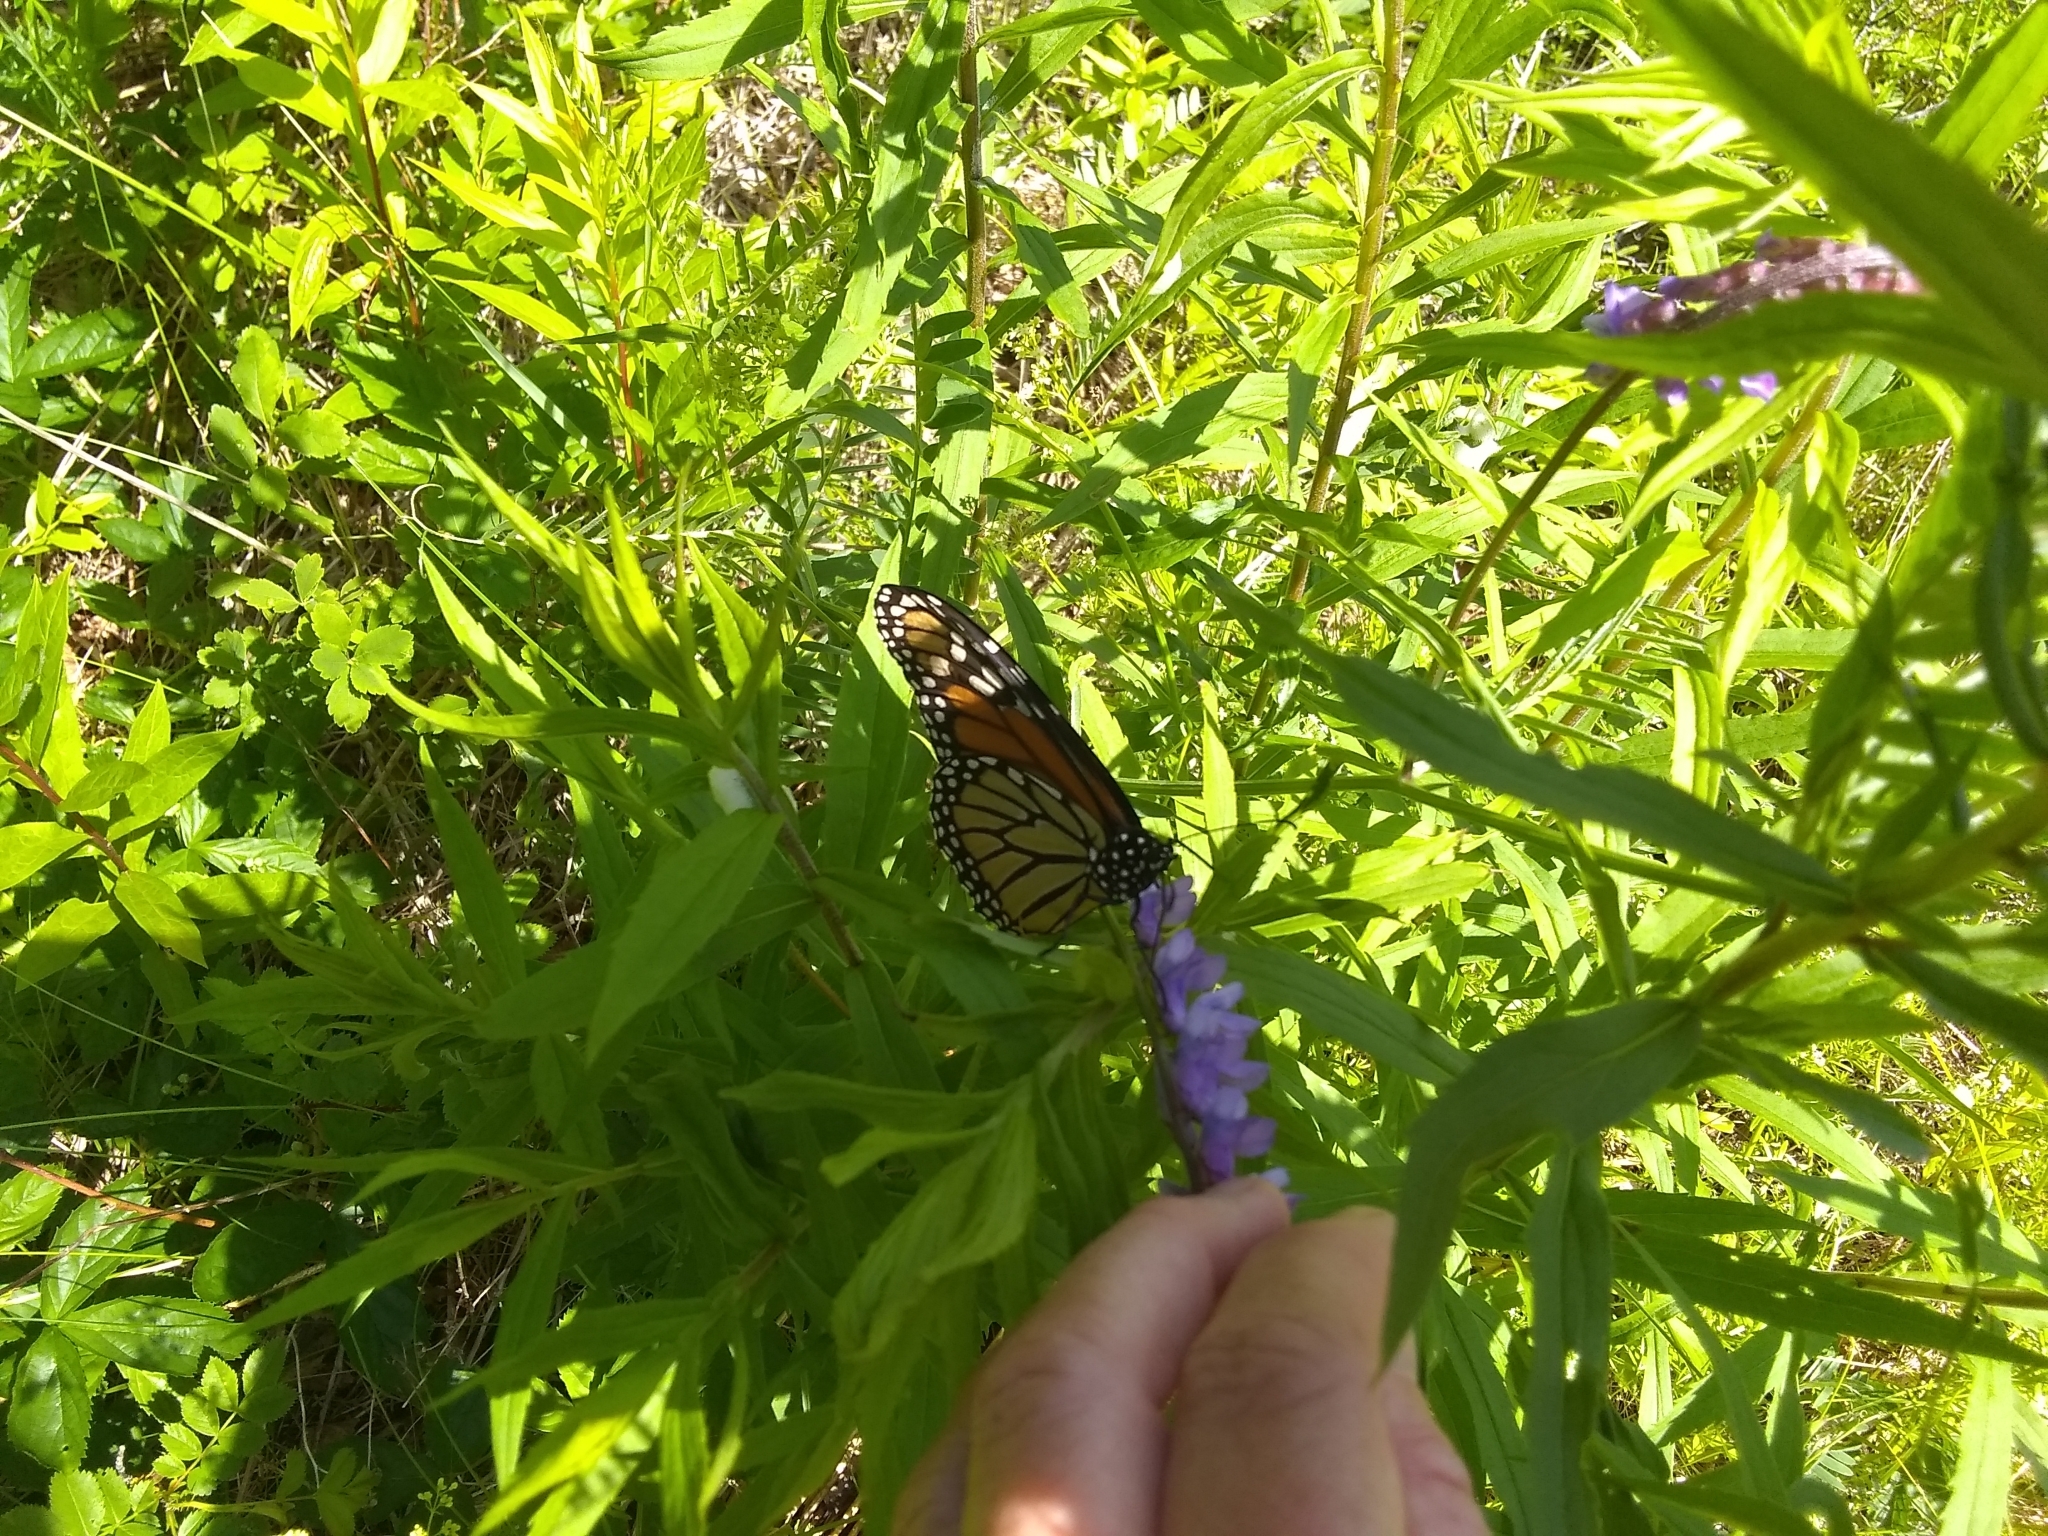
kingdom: Animalia
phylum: Arthropoda
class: Insecta
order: Lepidoptera
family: Nymphalidae
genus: Danaus
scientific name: Danaus plexippus
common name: Monarch
